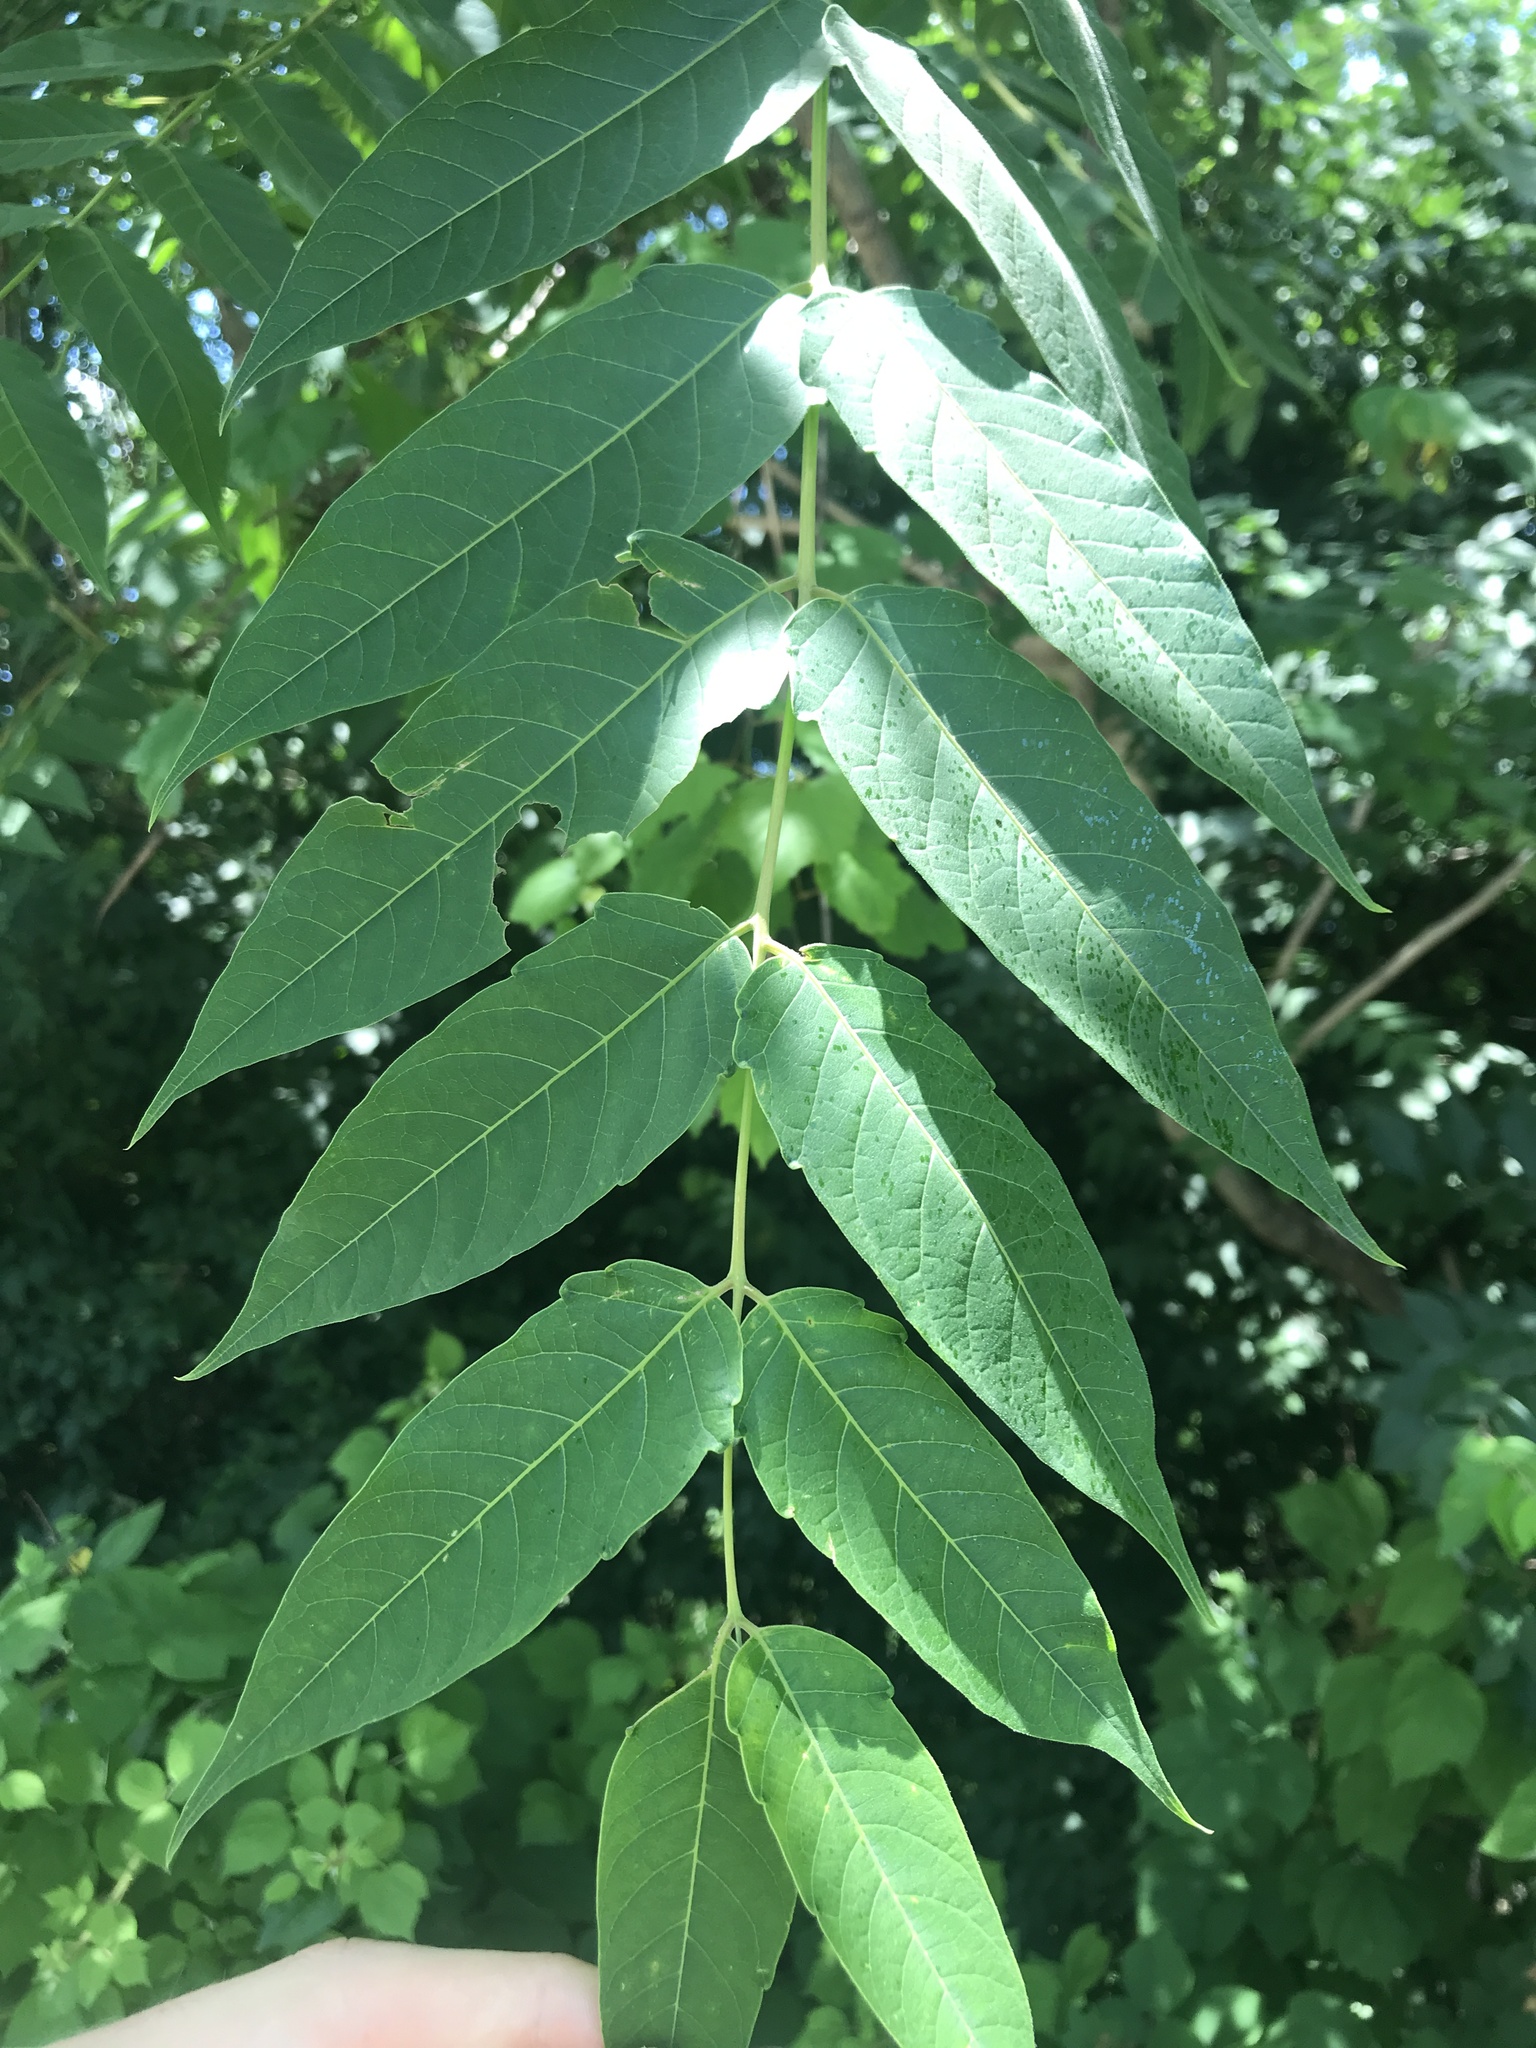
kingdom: Plantae
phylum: Tracheophyta
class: Magnoliopsida
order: Sapindales
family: Simaroubaceae
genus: Ailanthus
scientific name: Ailanthus altissima
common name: Tree-of-heaven
